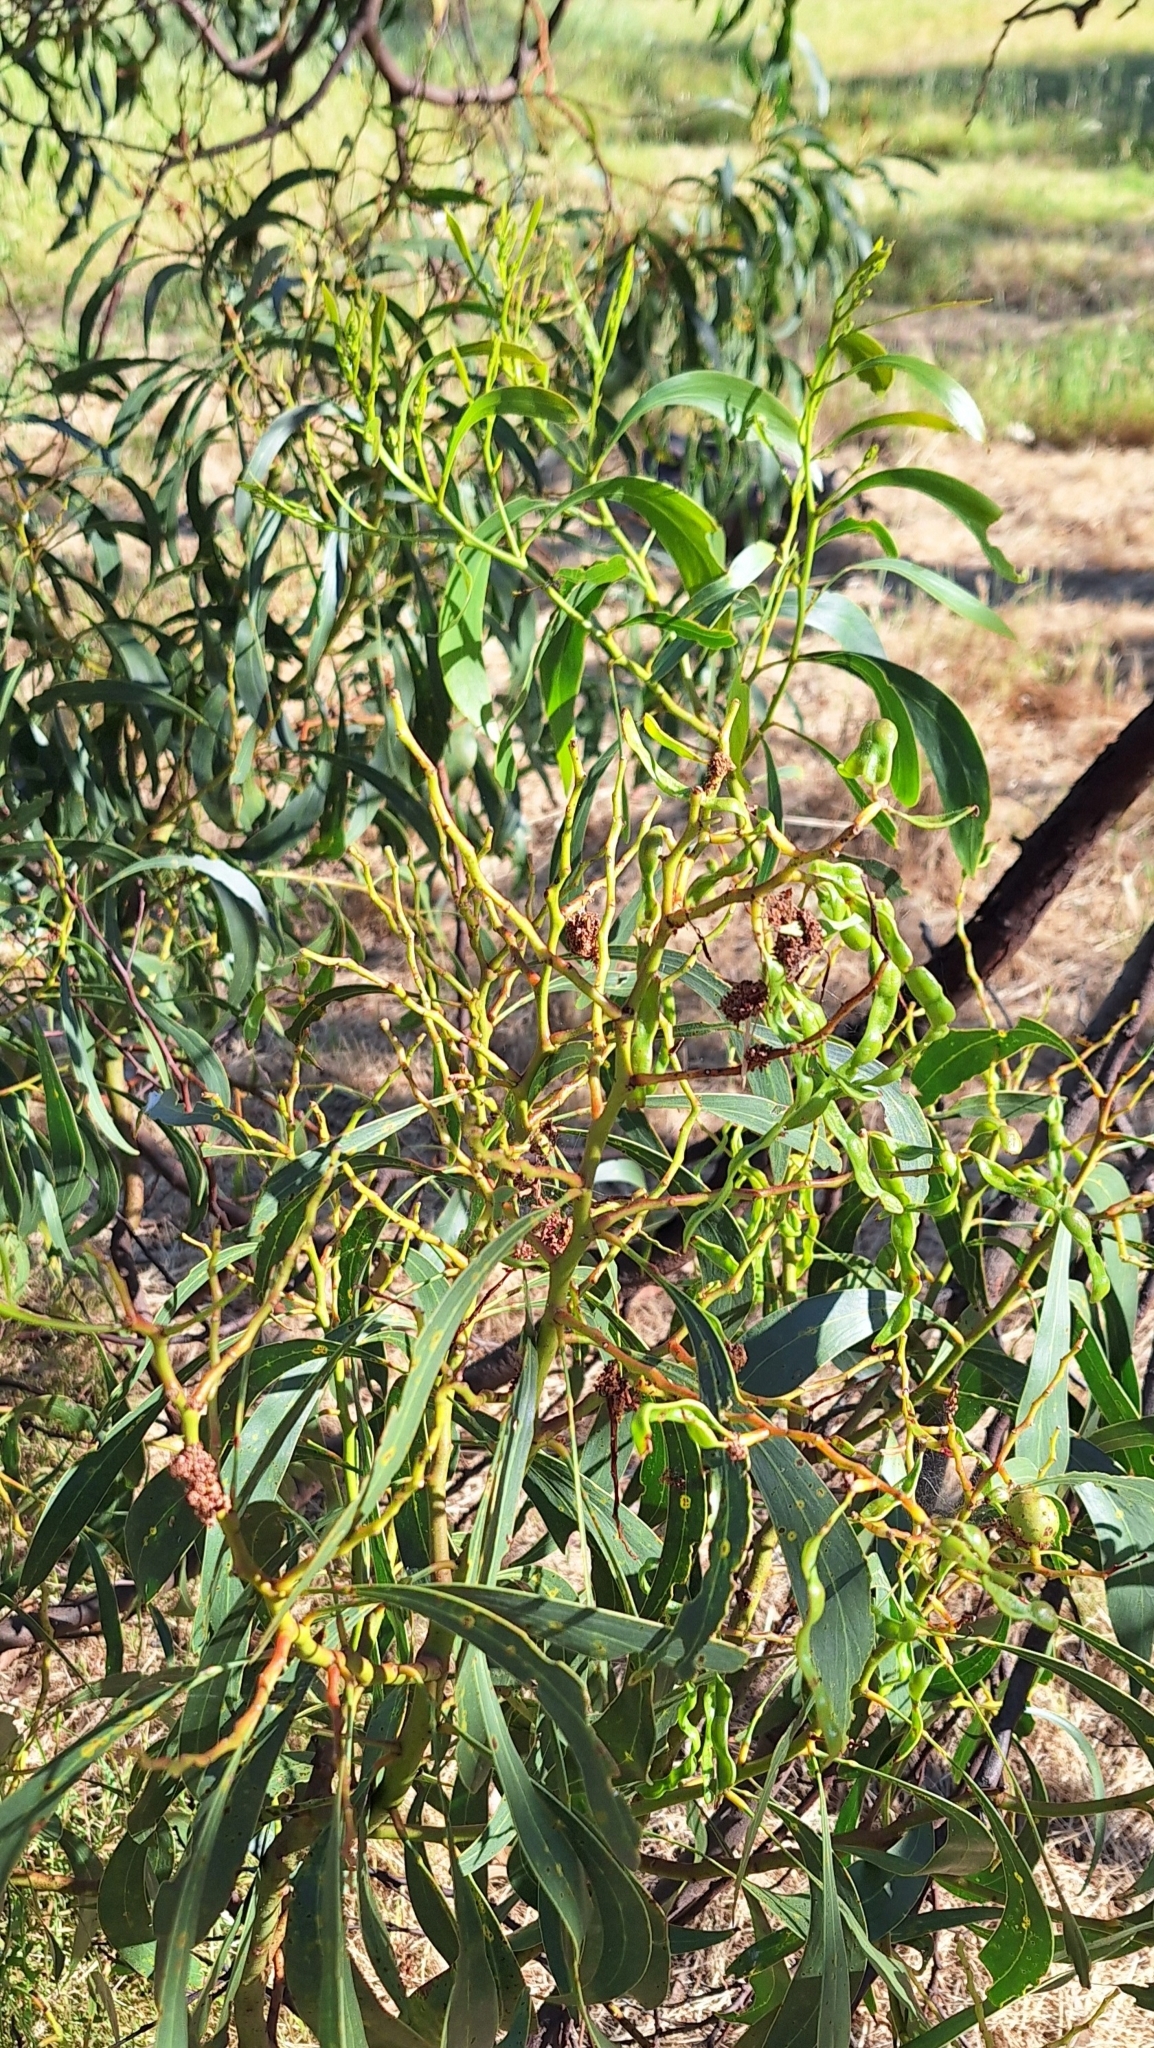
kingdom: Plantae
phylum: Tracheophyta
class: Magnoliopsida
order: Fabales
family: Fabaceae
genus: Acacia
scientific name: Acacia pycnantha
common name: Golden wattle
